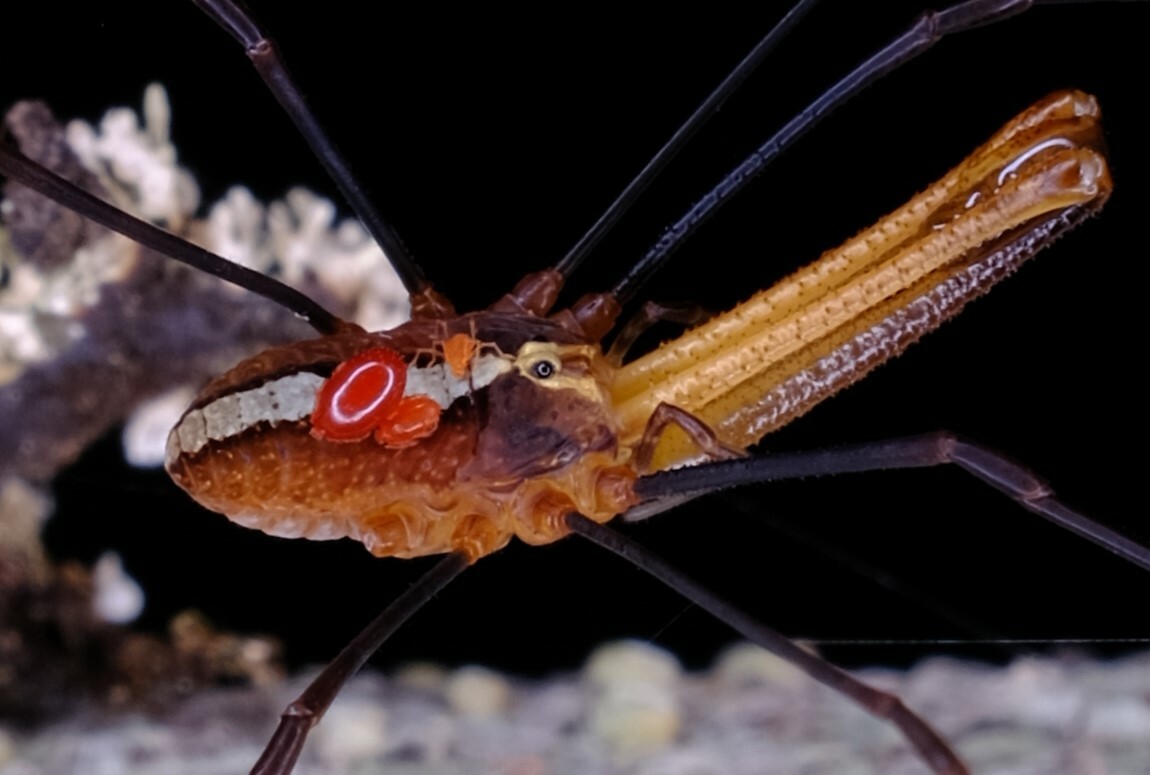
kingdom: Animalia
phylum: Arthropoda
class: Arachnida
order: Opiliones
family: Neopilionidae
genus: Megalopsalis
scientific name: Megalopsalis tasmanica
